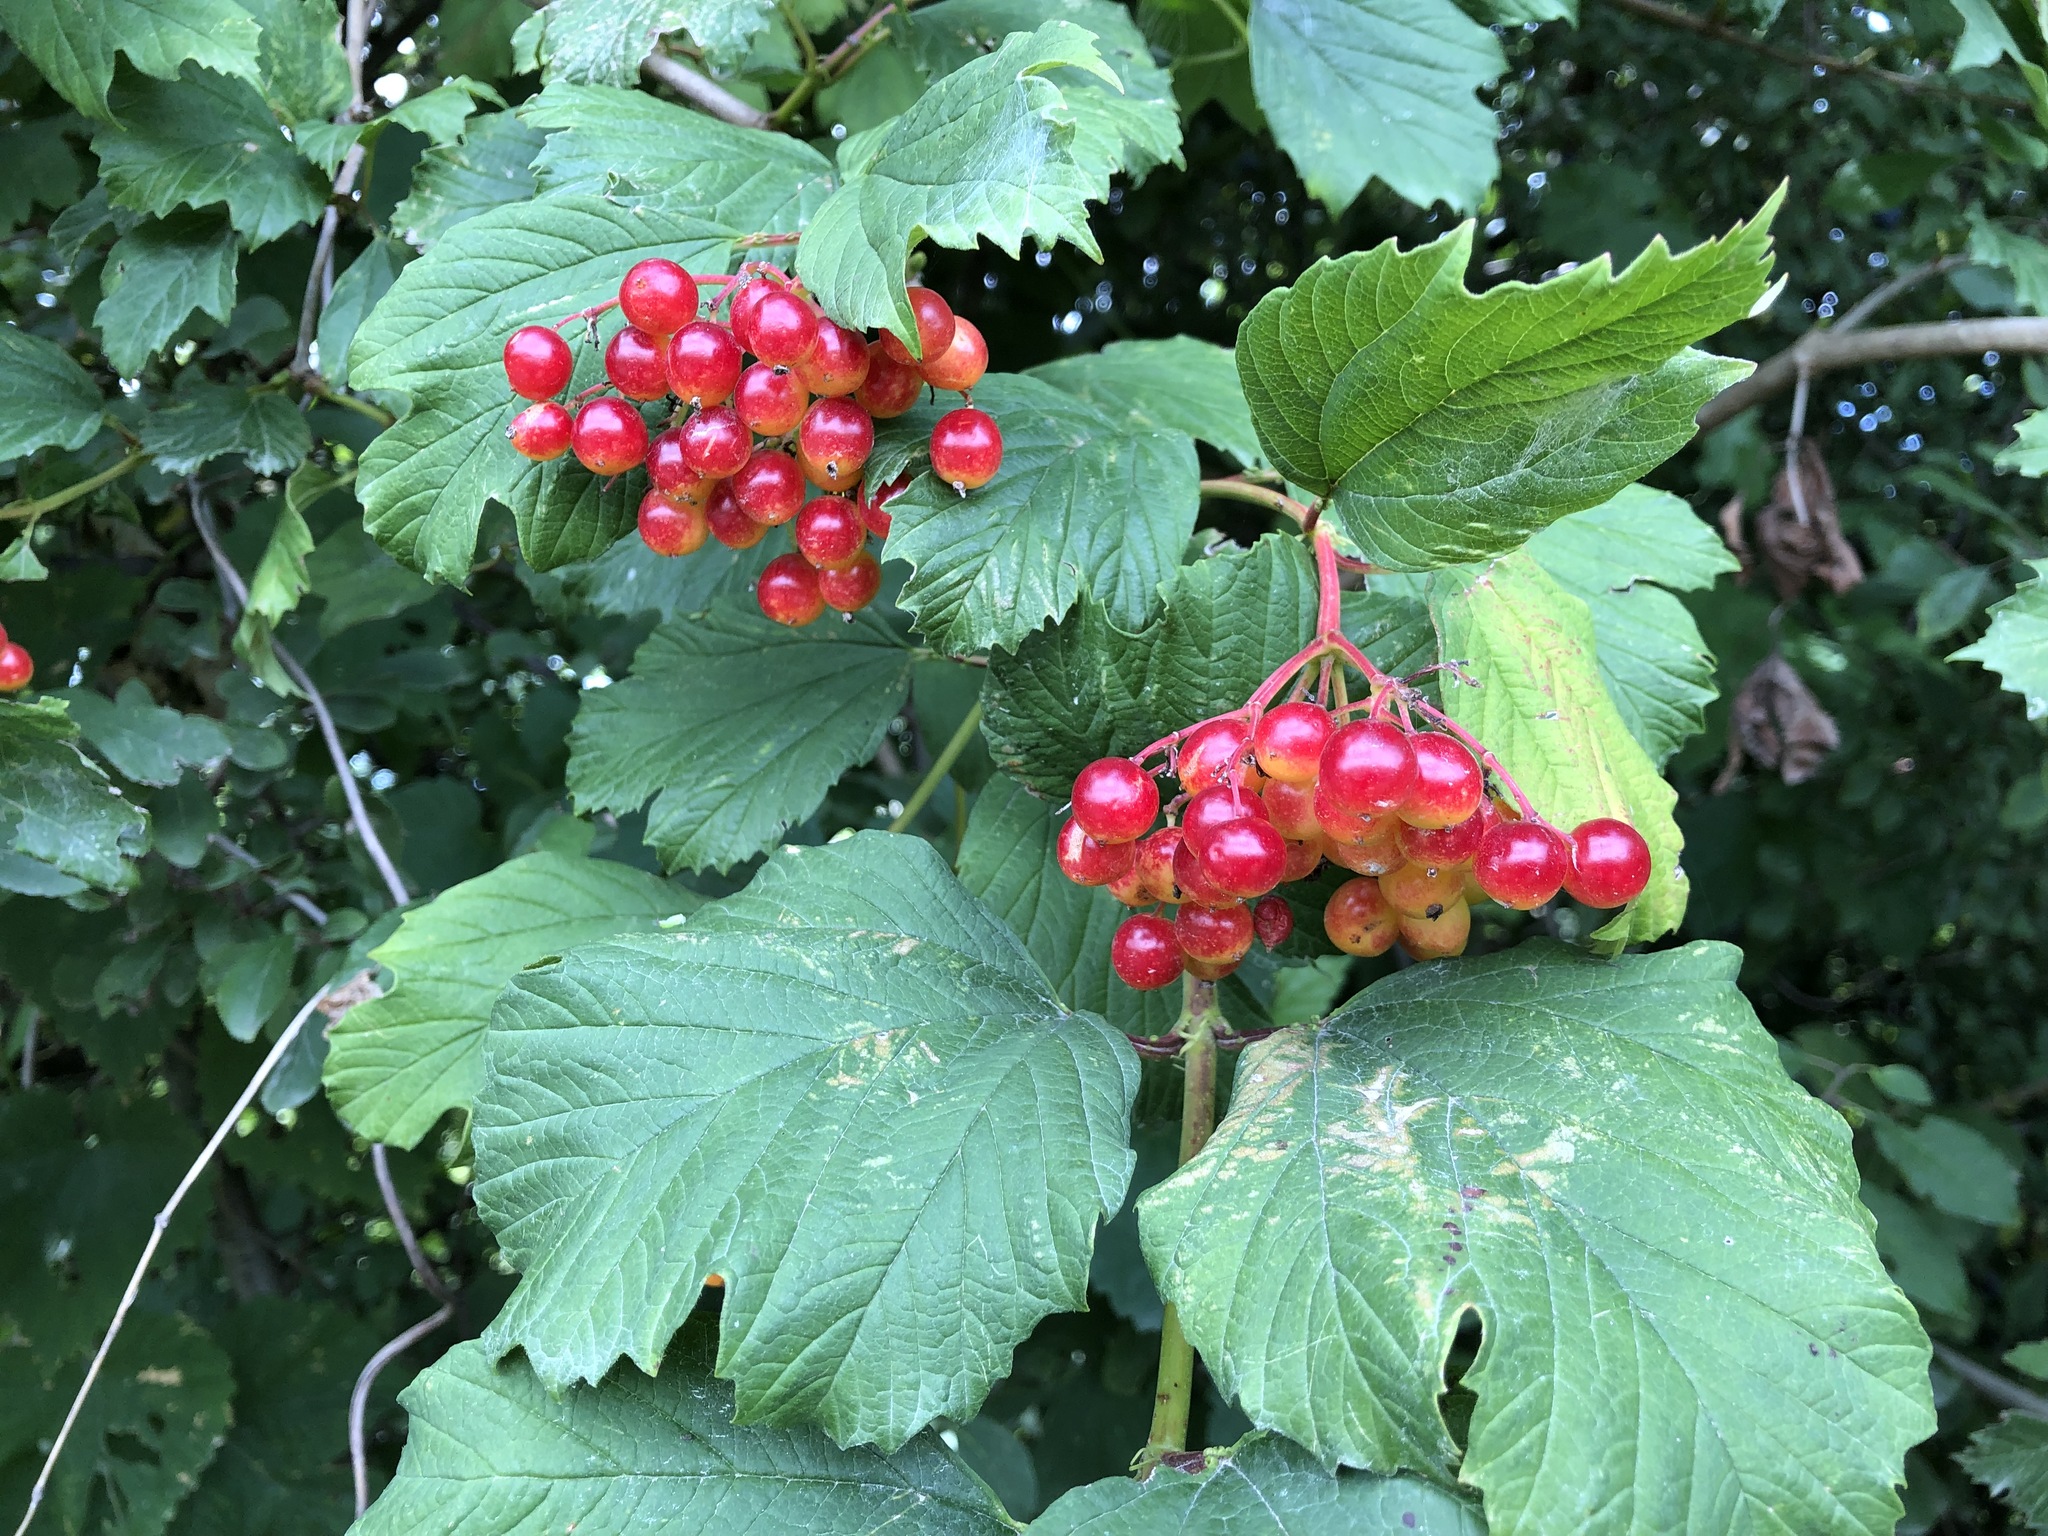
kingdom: Plantae
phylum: Tracheophyta
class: Magnoliopsida
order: Dipsacales
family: Viburnaceae
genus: Viburnum
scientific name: Viburnum opulus
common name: Guelder-rose
